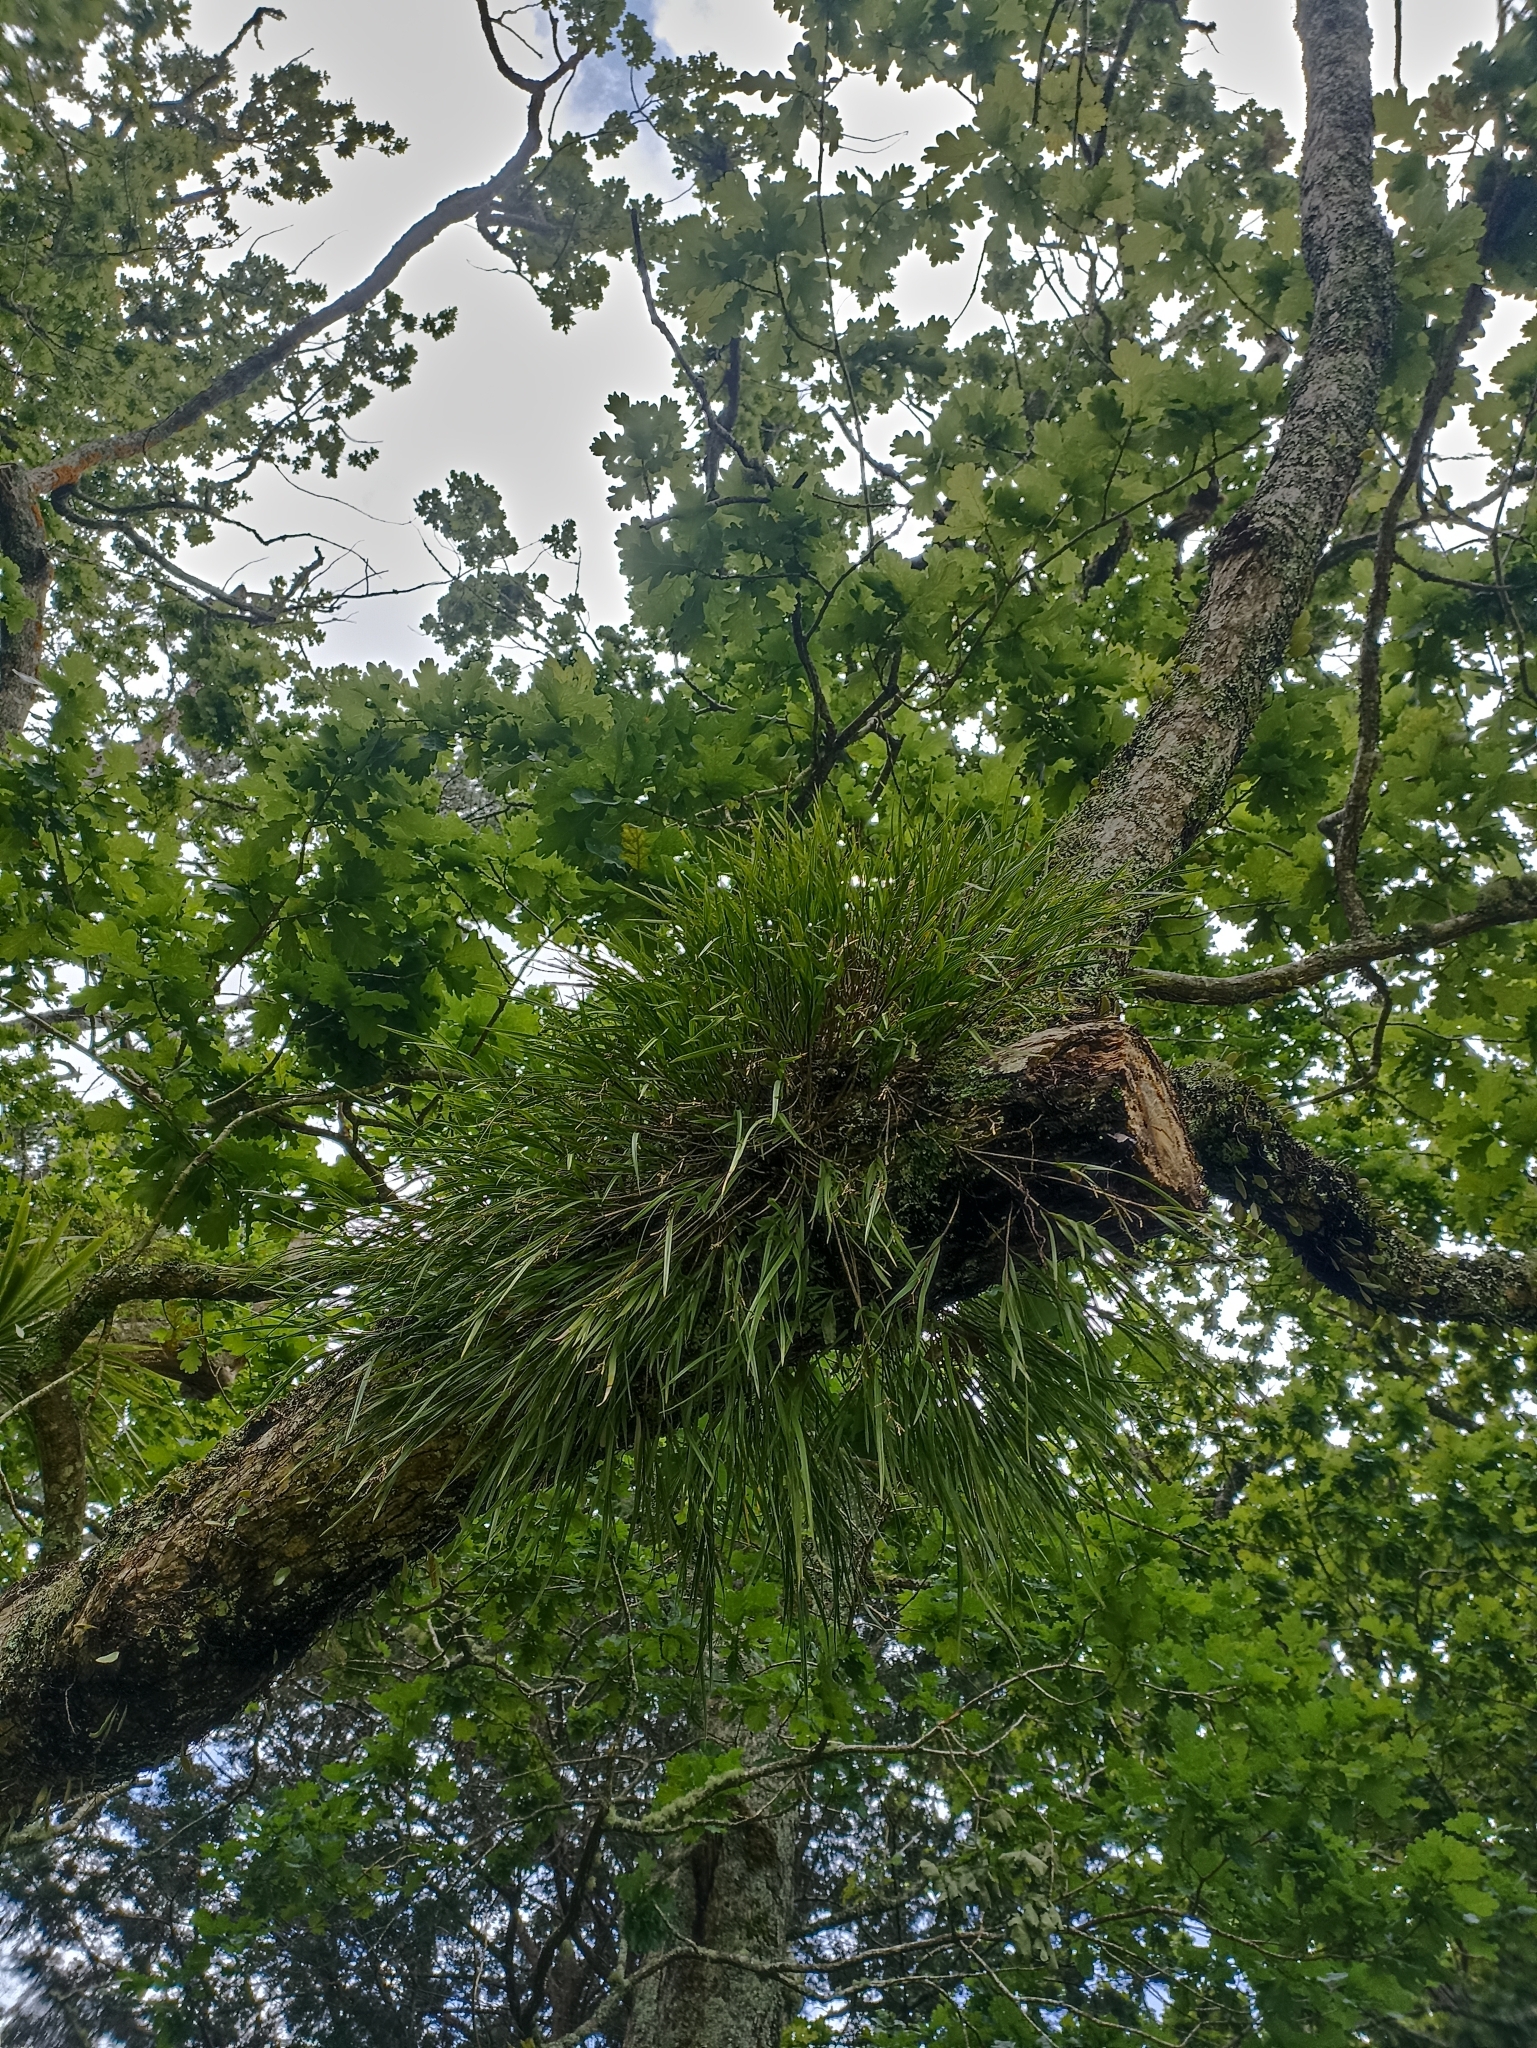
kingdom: Plantae
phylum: Tracheophyta
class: Liliopsida
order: Asparagales
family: Orchidaceae
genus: Earina
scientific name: Earina mucronata
